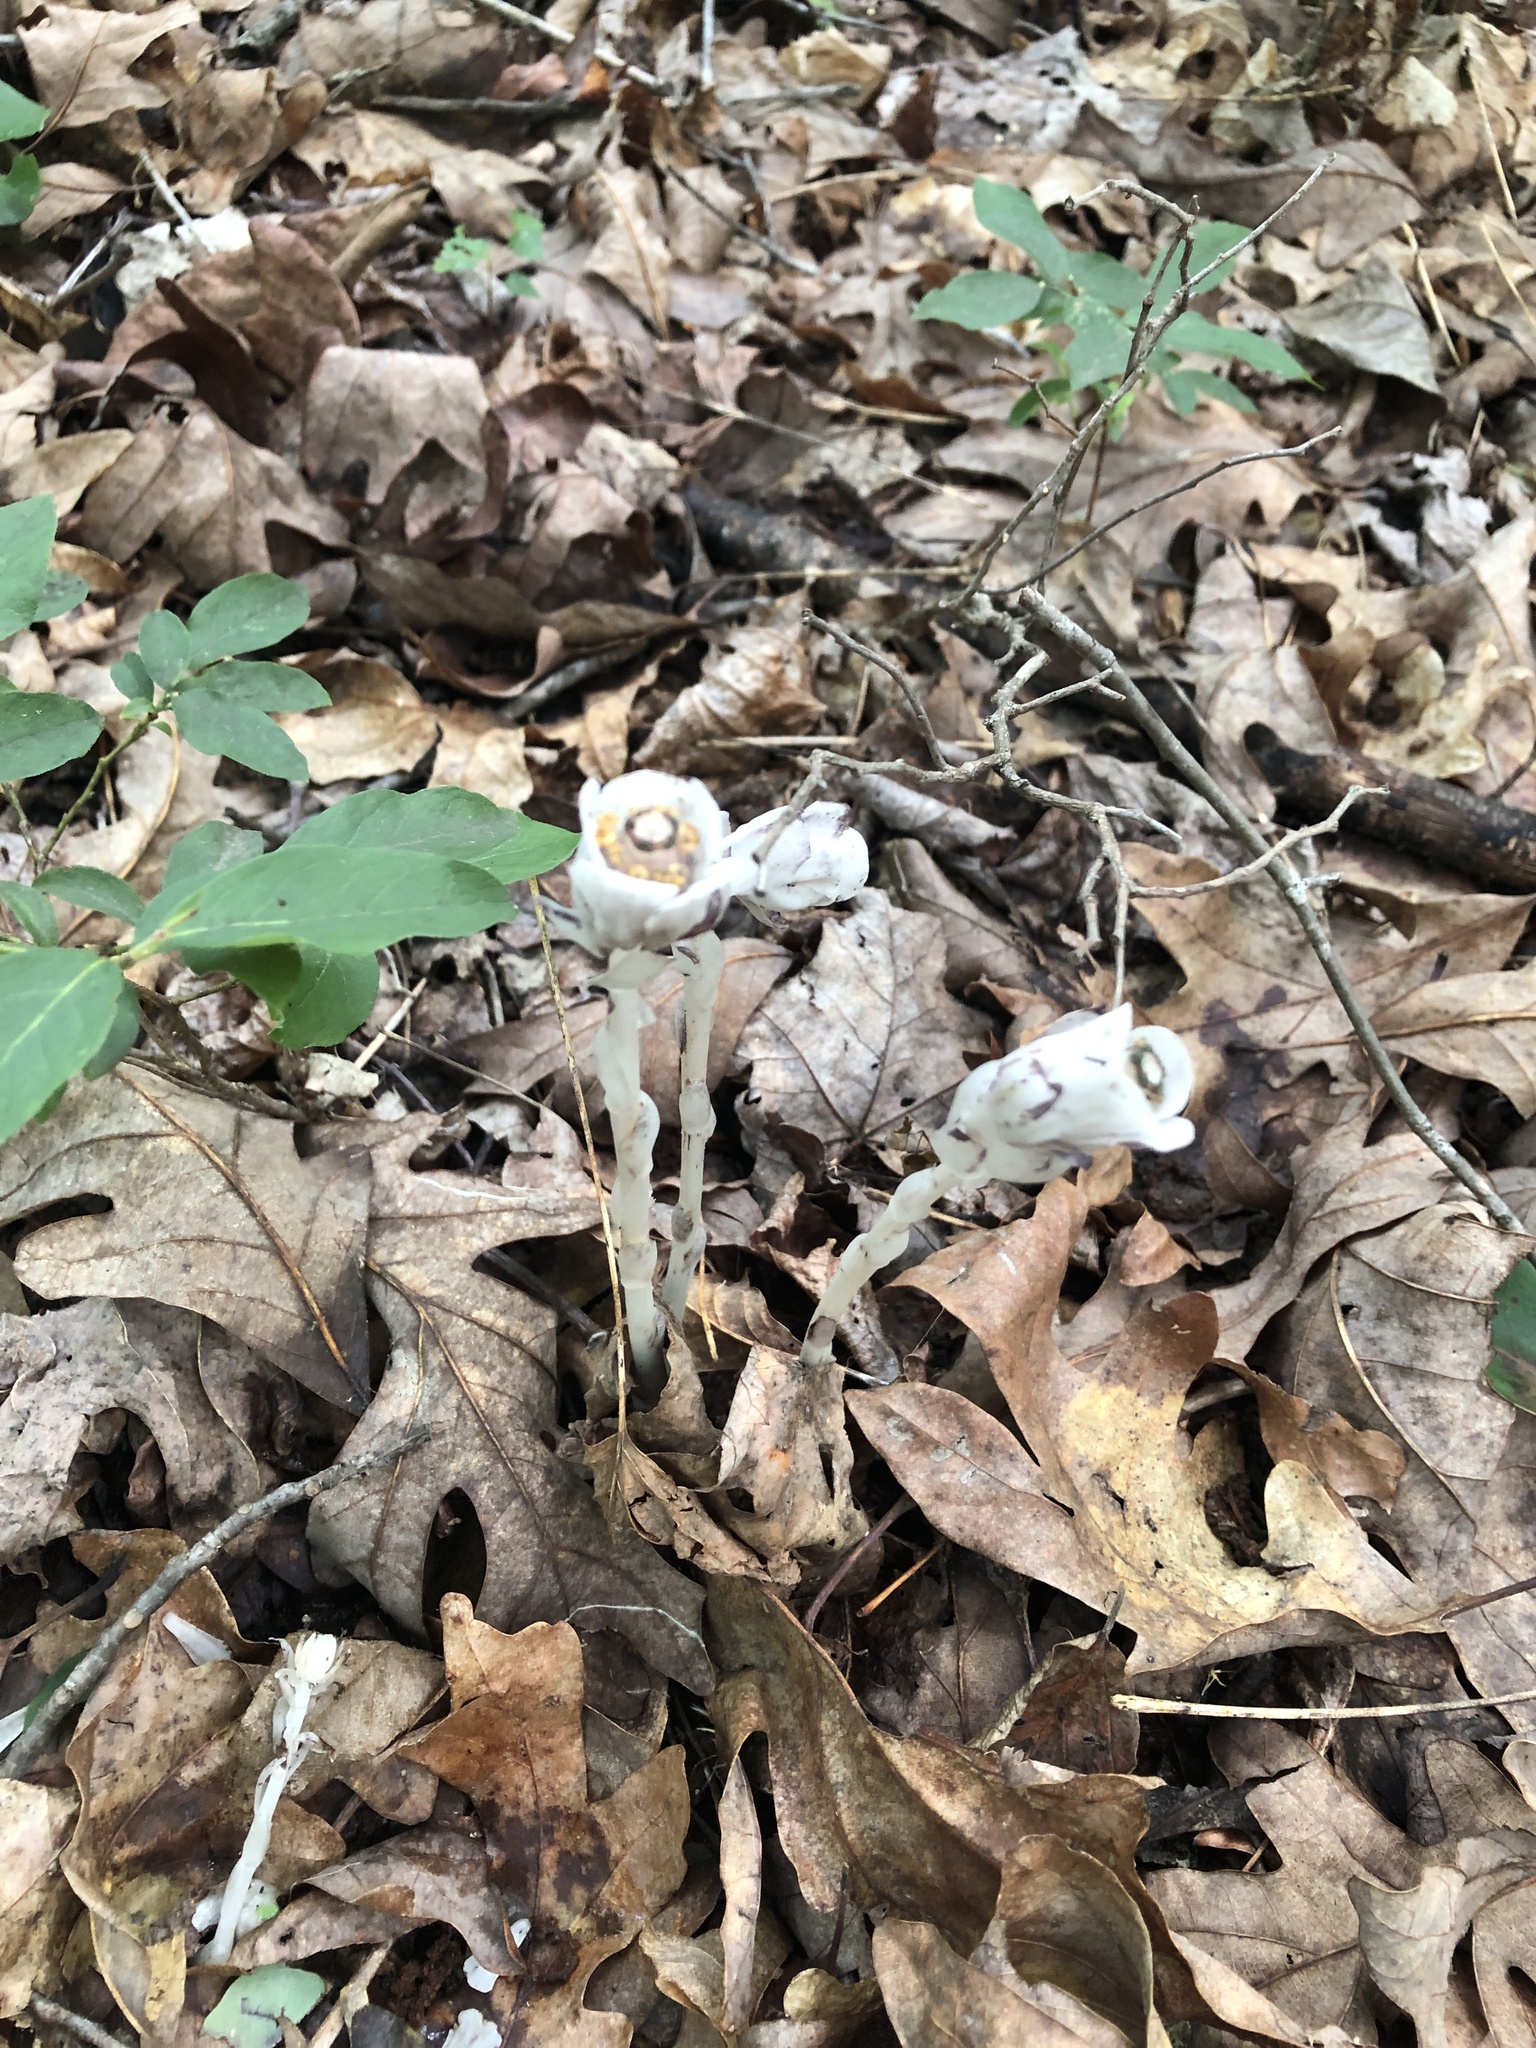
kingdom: Plantae
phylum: Tracheophyta
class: Magnoliopsida
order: Ericales
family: Ericaceae
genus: Monotropa
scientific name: Monotropa uniflora
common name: Convulsion root
